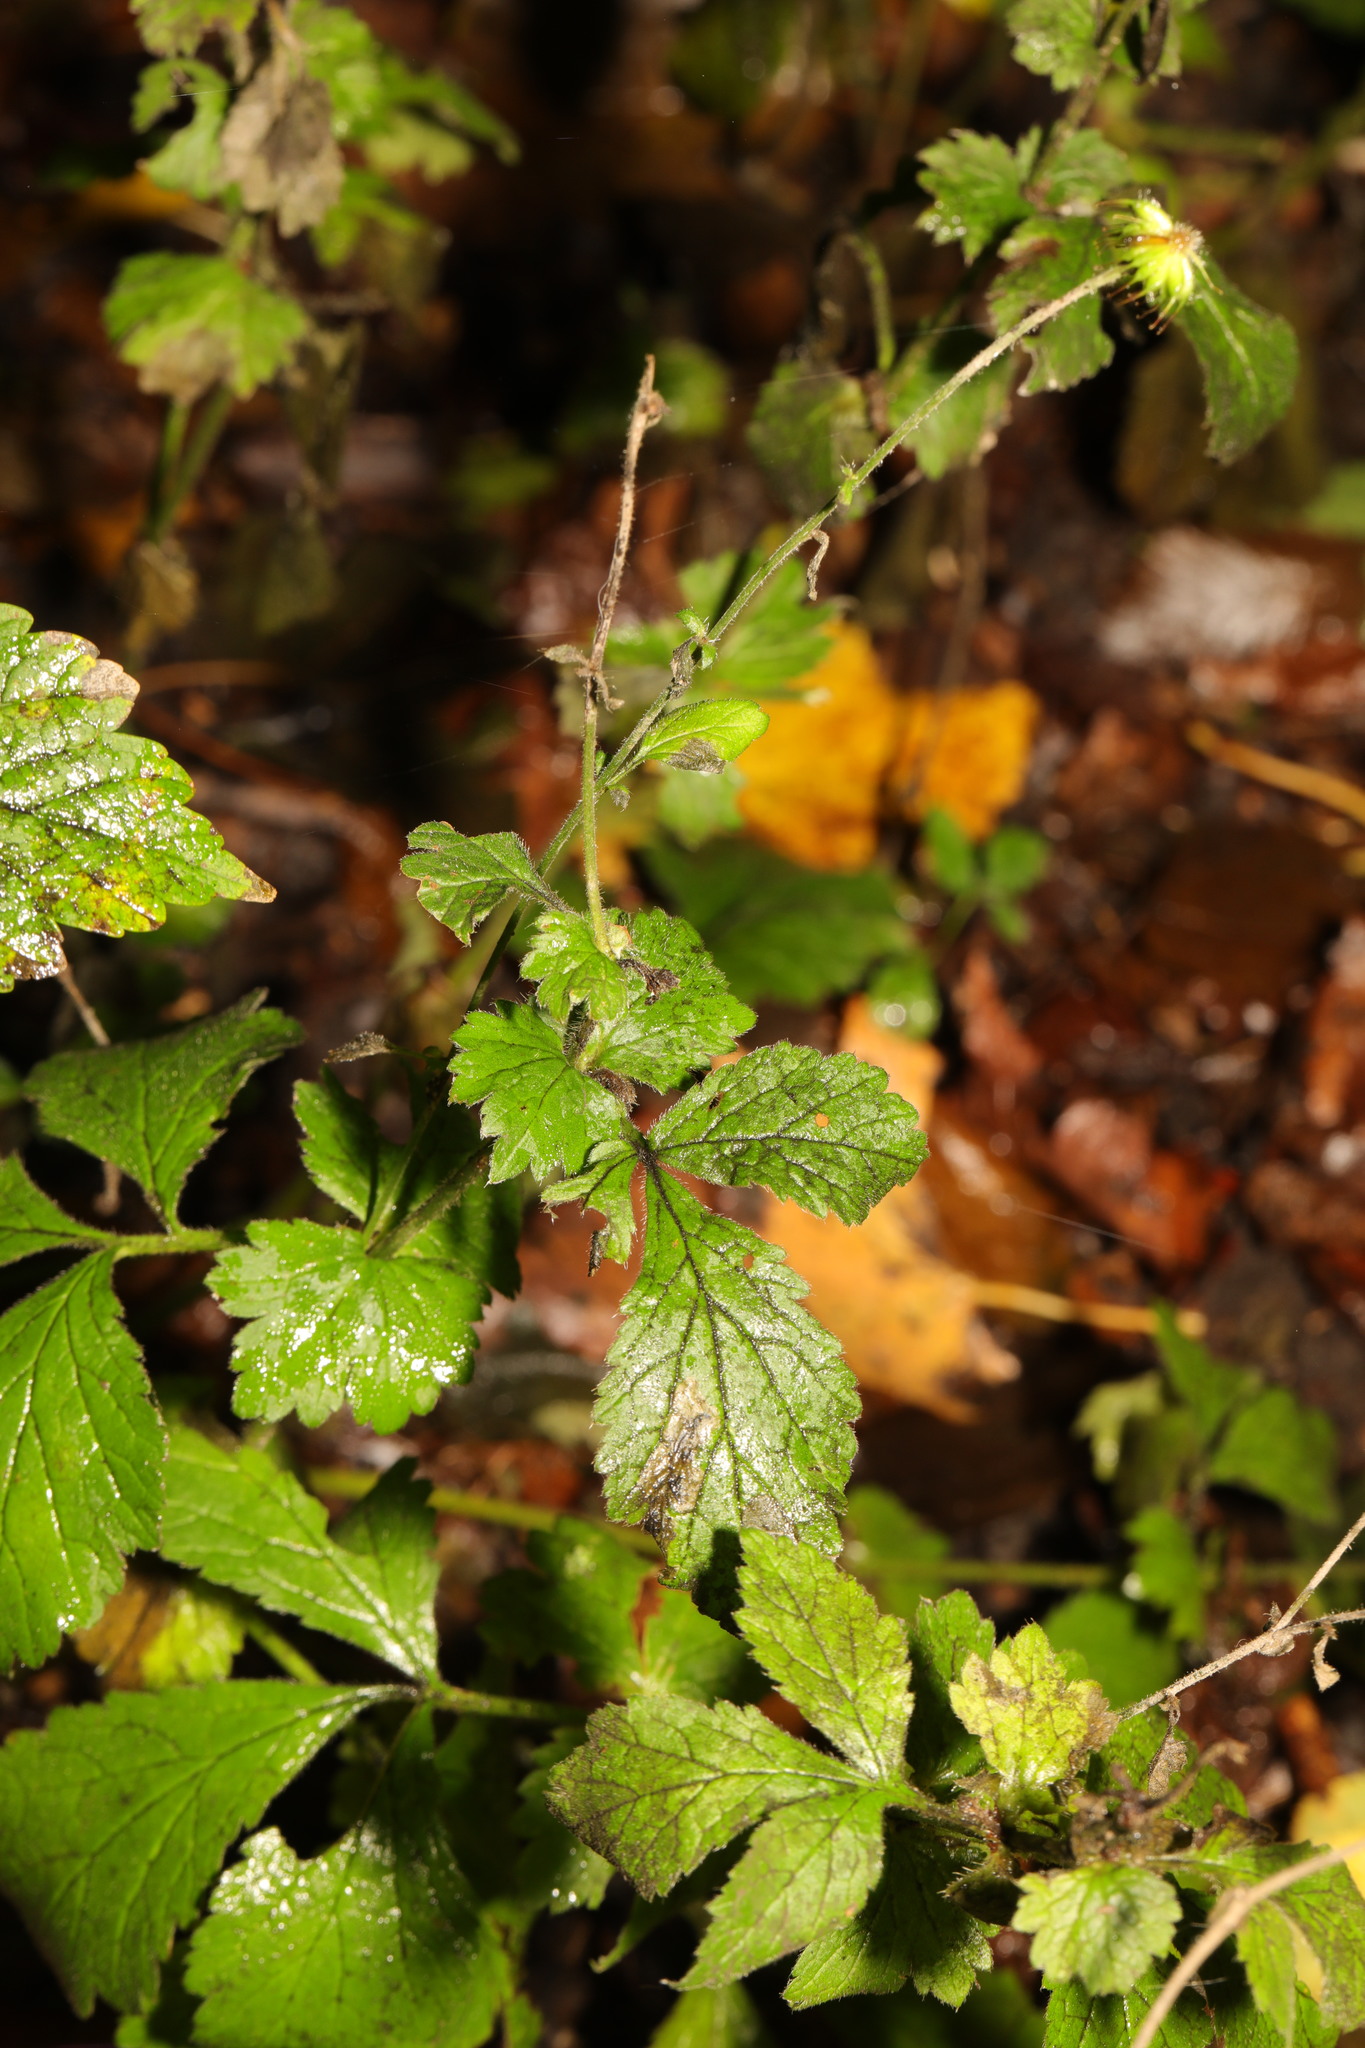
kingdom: Plantae
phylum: Tracheophyta
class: Magnoliopsida
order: Rosales
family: Rosaceae
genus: Geum
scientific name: Geum urbanum
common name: Wood avens
